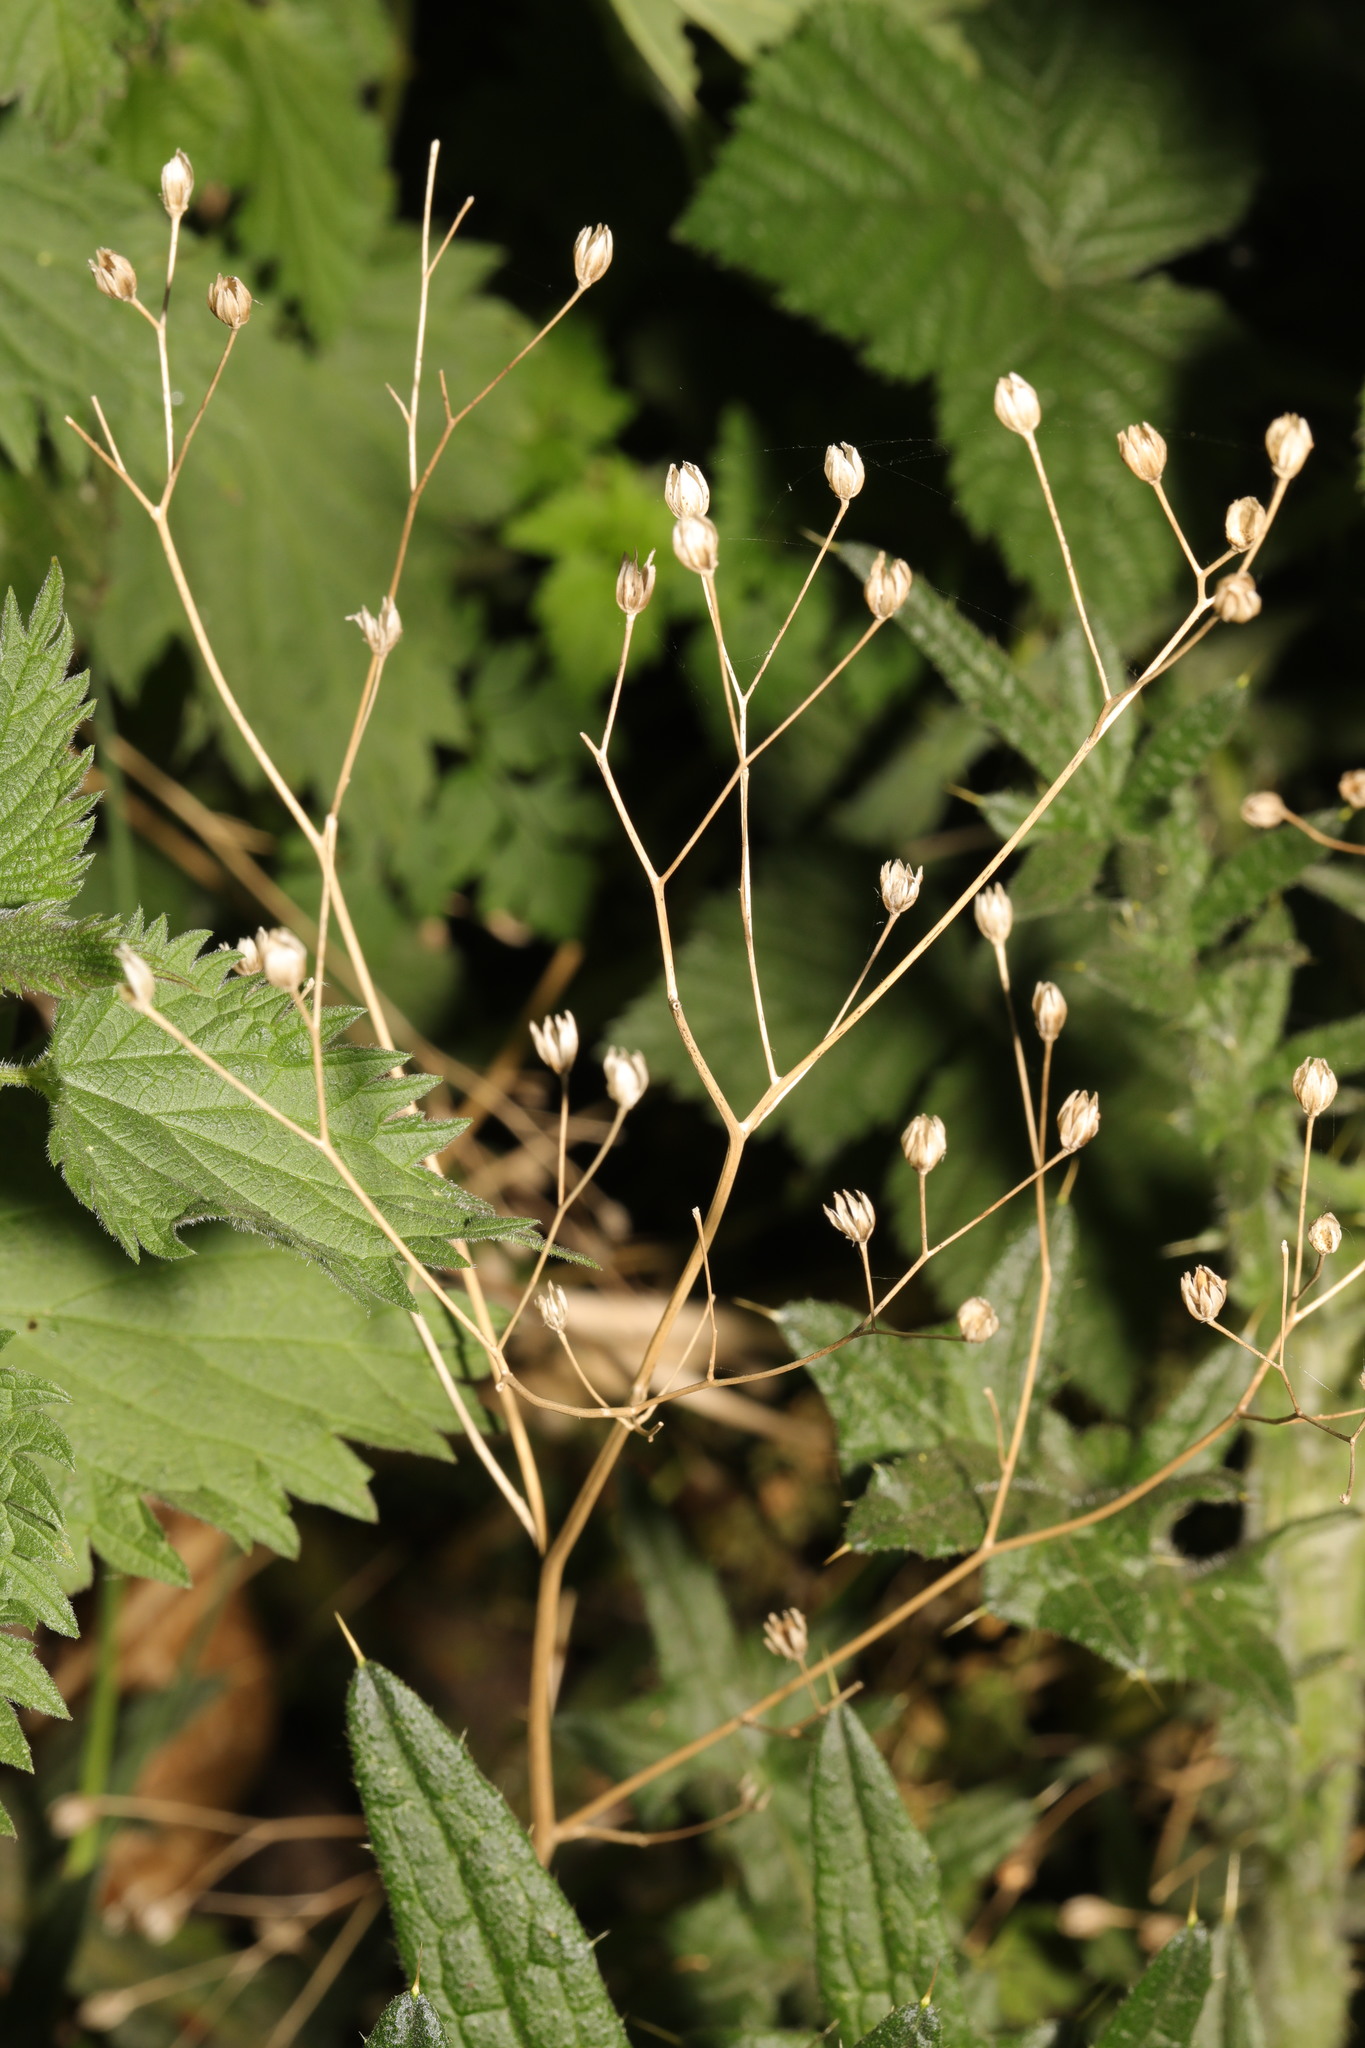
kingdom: Plantae
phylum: Tracheophyta
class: Magnoliopsida
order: Asterales
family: Asteraceae
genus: Lapsana
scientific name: Lapsana communis
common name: Nipplewort
